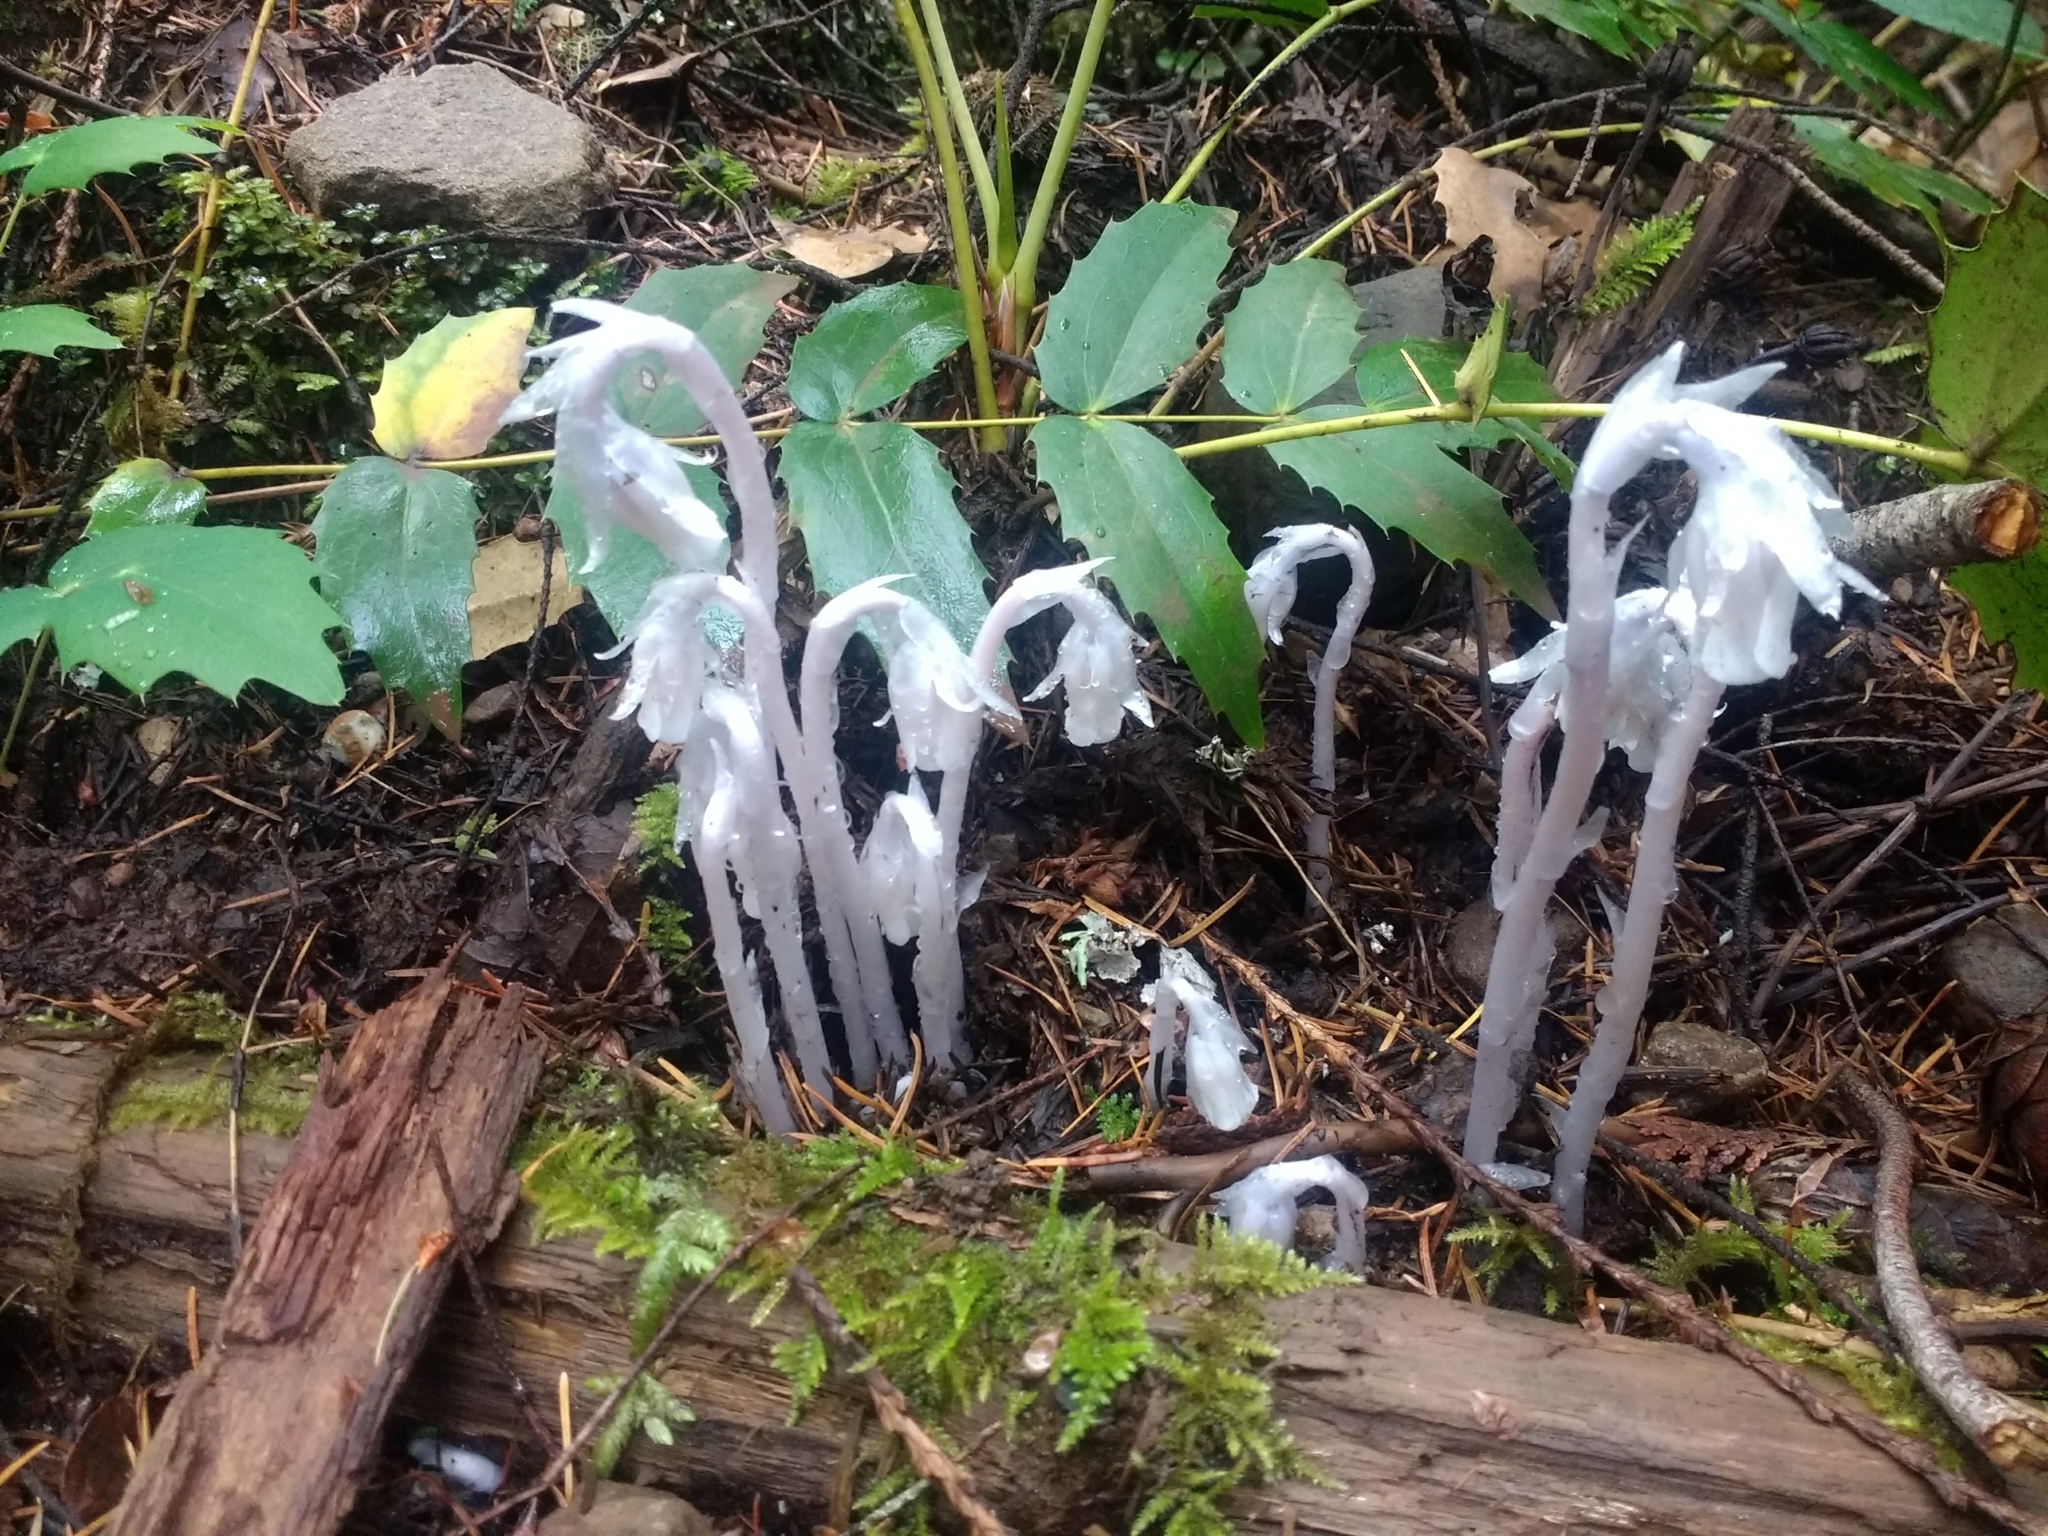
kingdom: Plantae
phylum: Tracheophyta
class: Magnoliopsida
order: Ericales
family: Ericaceae
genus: Monotropa
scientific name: Monotropa uniflora
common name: Convulsion root
